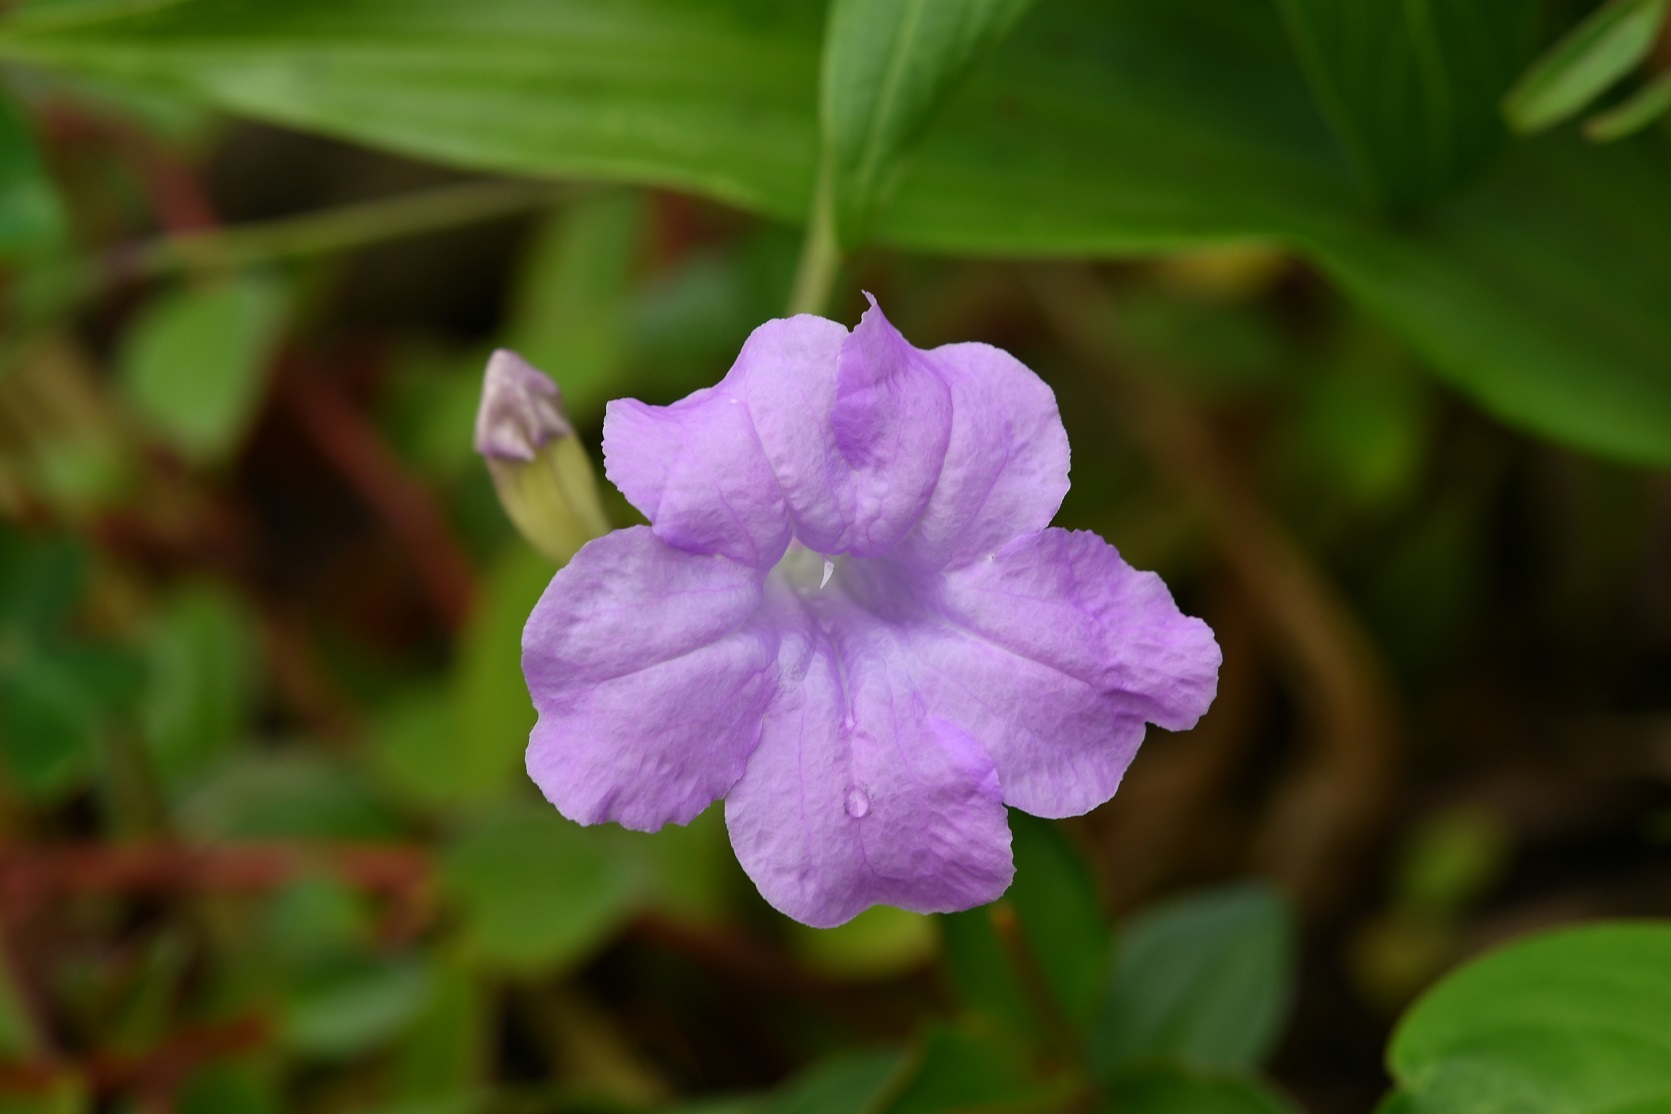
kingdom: Plantae
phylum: Tracheophyta
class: Magnoliopsida
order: Lamiales
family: Acanthaceae
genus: Ruellia
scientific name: Ruellia breedlovei
